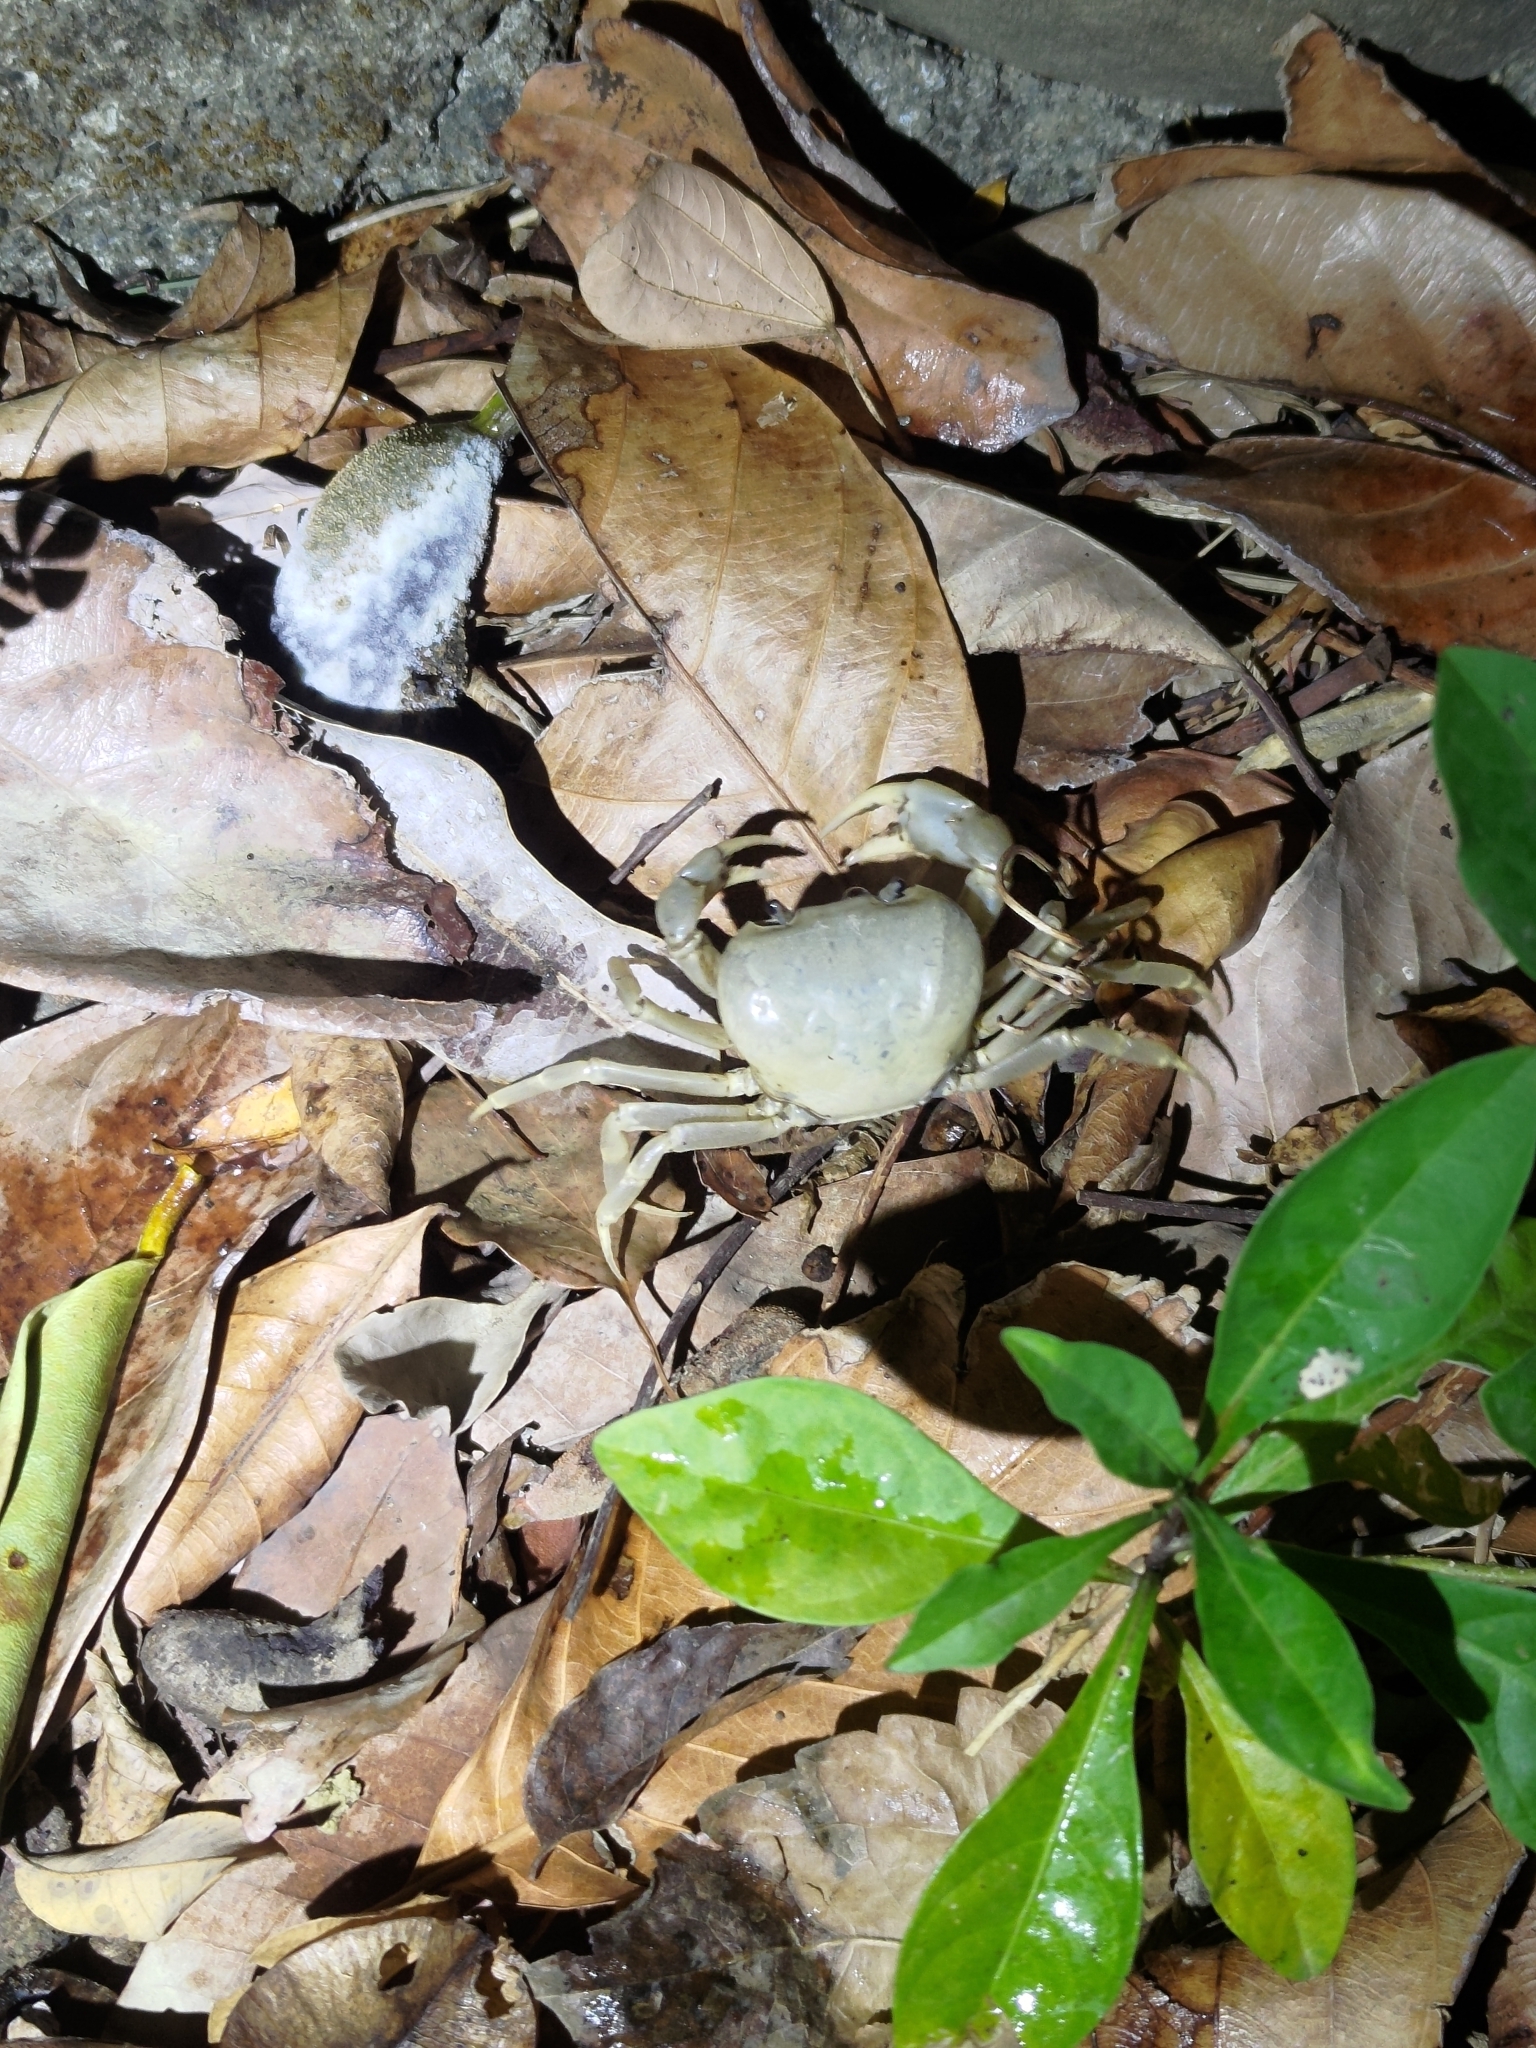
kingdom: Animalia
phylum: Arthropoda
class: Malacostraca
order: Decapoda
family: Potamidae
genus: Geothelphusa
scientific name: Geothelphusa ancylophallus
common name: Yuen chak thick crab
